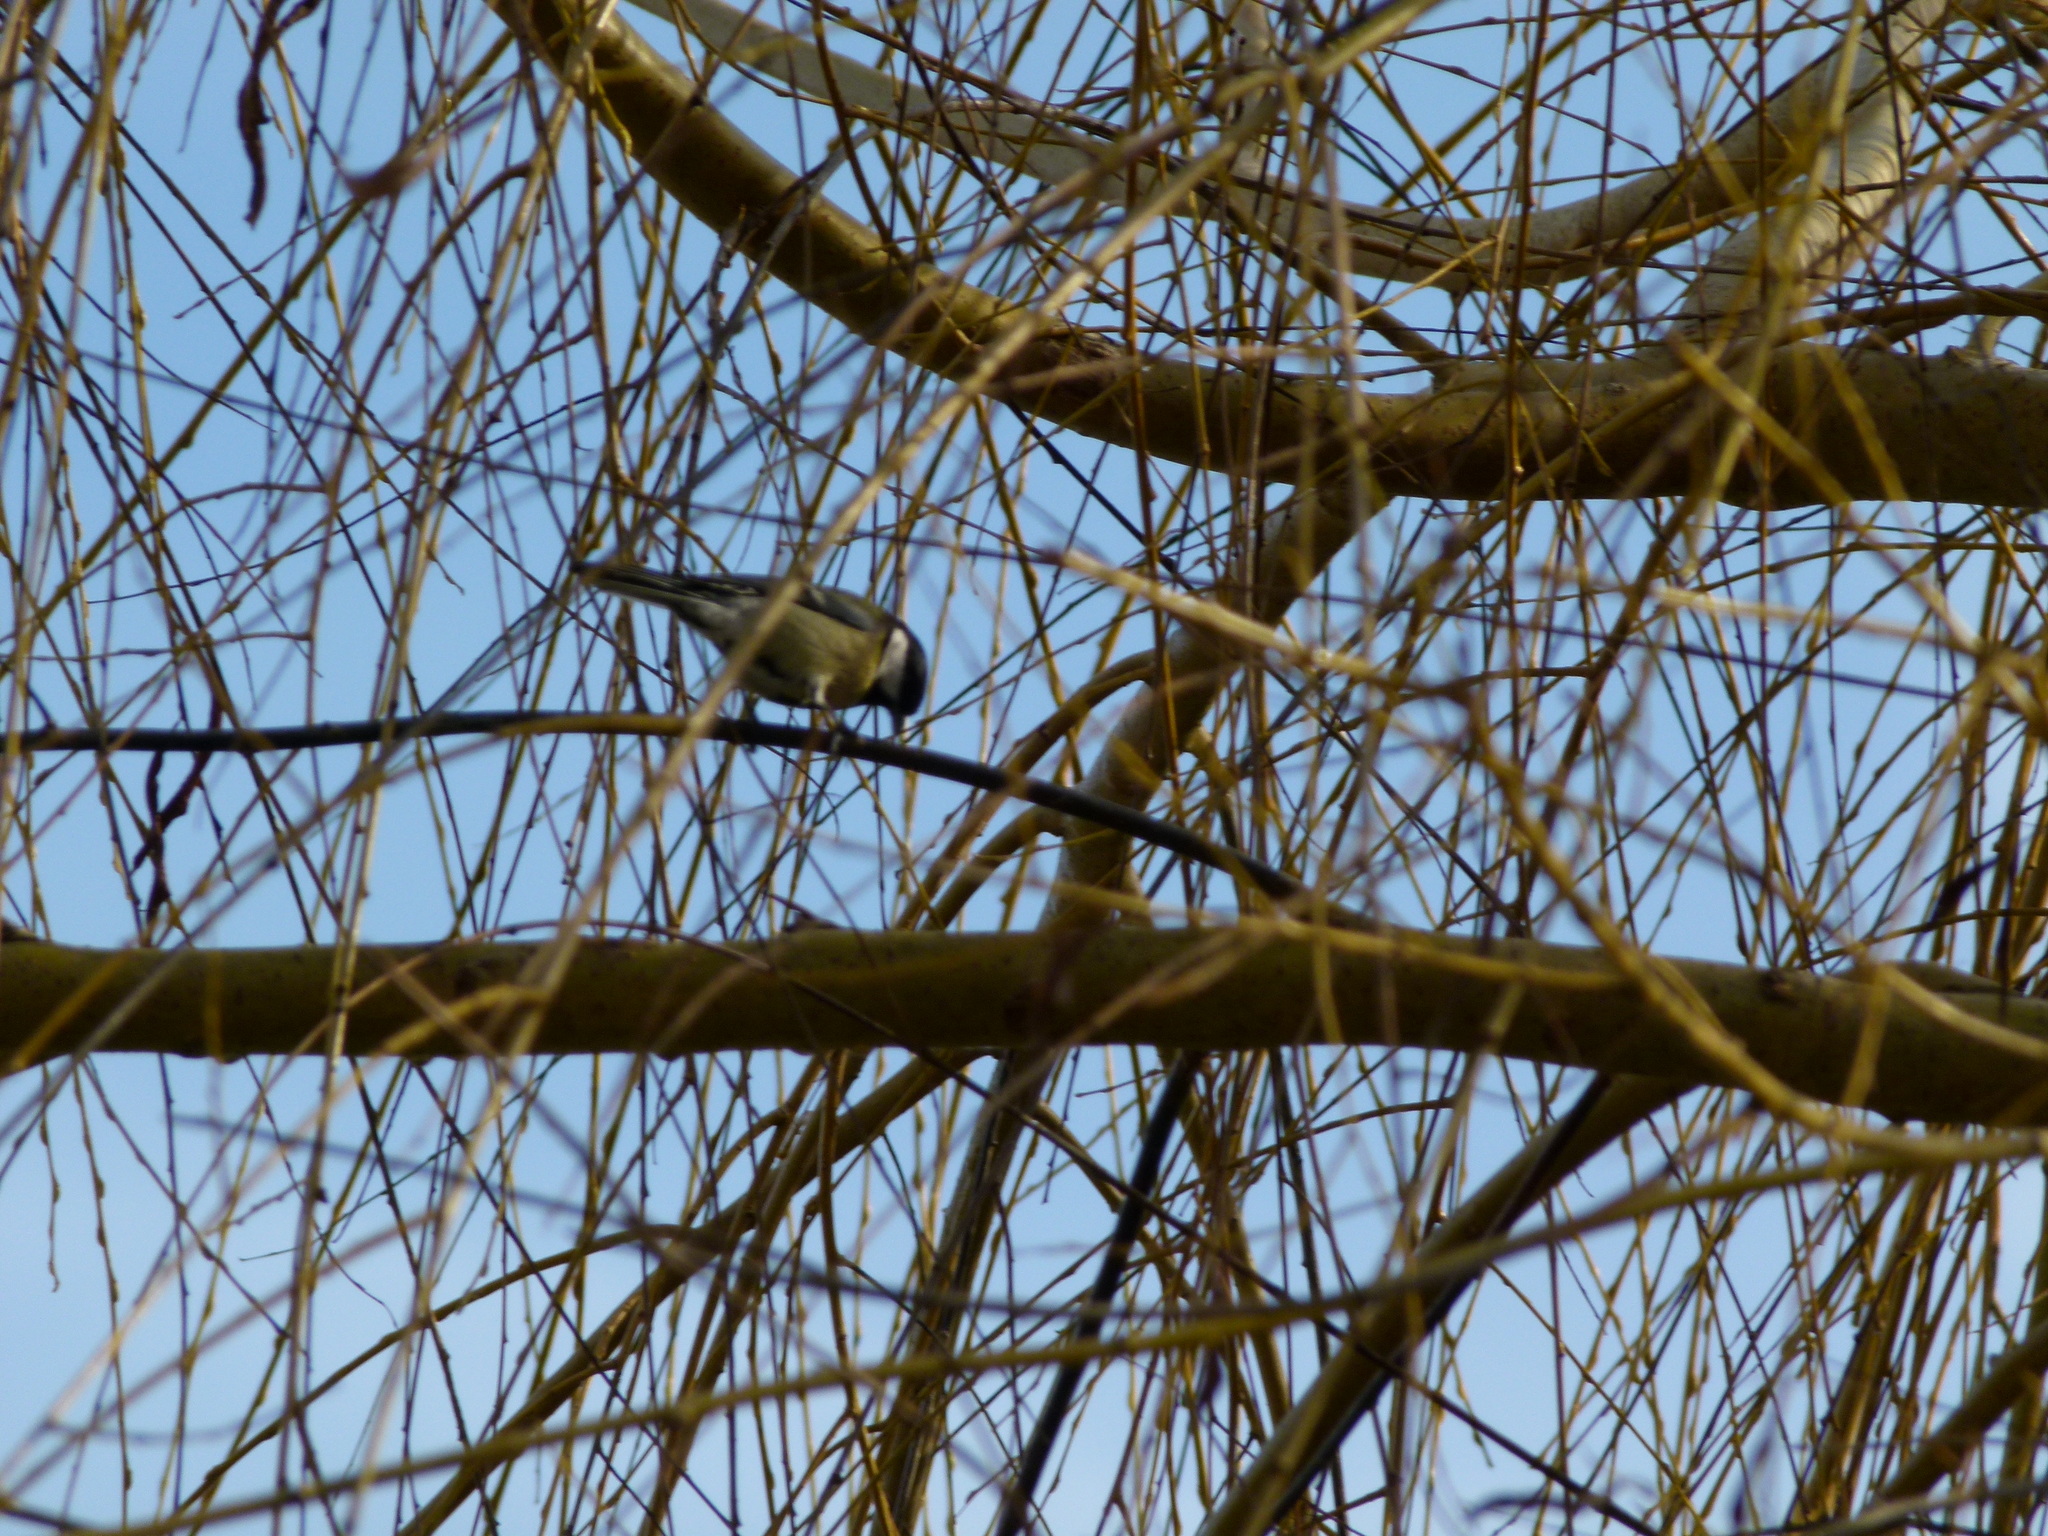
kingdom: Animalia
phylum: Chordata
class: Aves
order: Passeriformes
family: Paridae
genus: Parus
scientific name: Parus major
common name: Great tit
